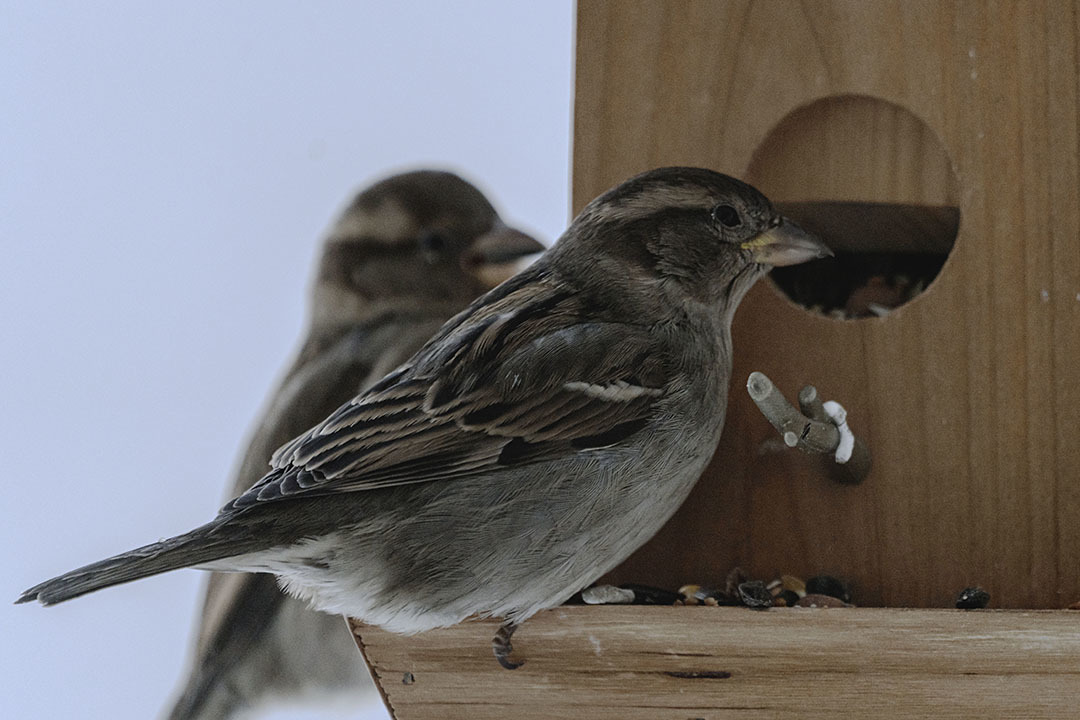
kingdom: Animalia
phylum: Chordata
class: Aves
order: Passeriformes
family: Passeridae
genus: Passer
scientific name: Passer domesticus
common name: House sparrow
